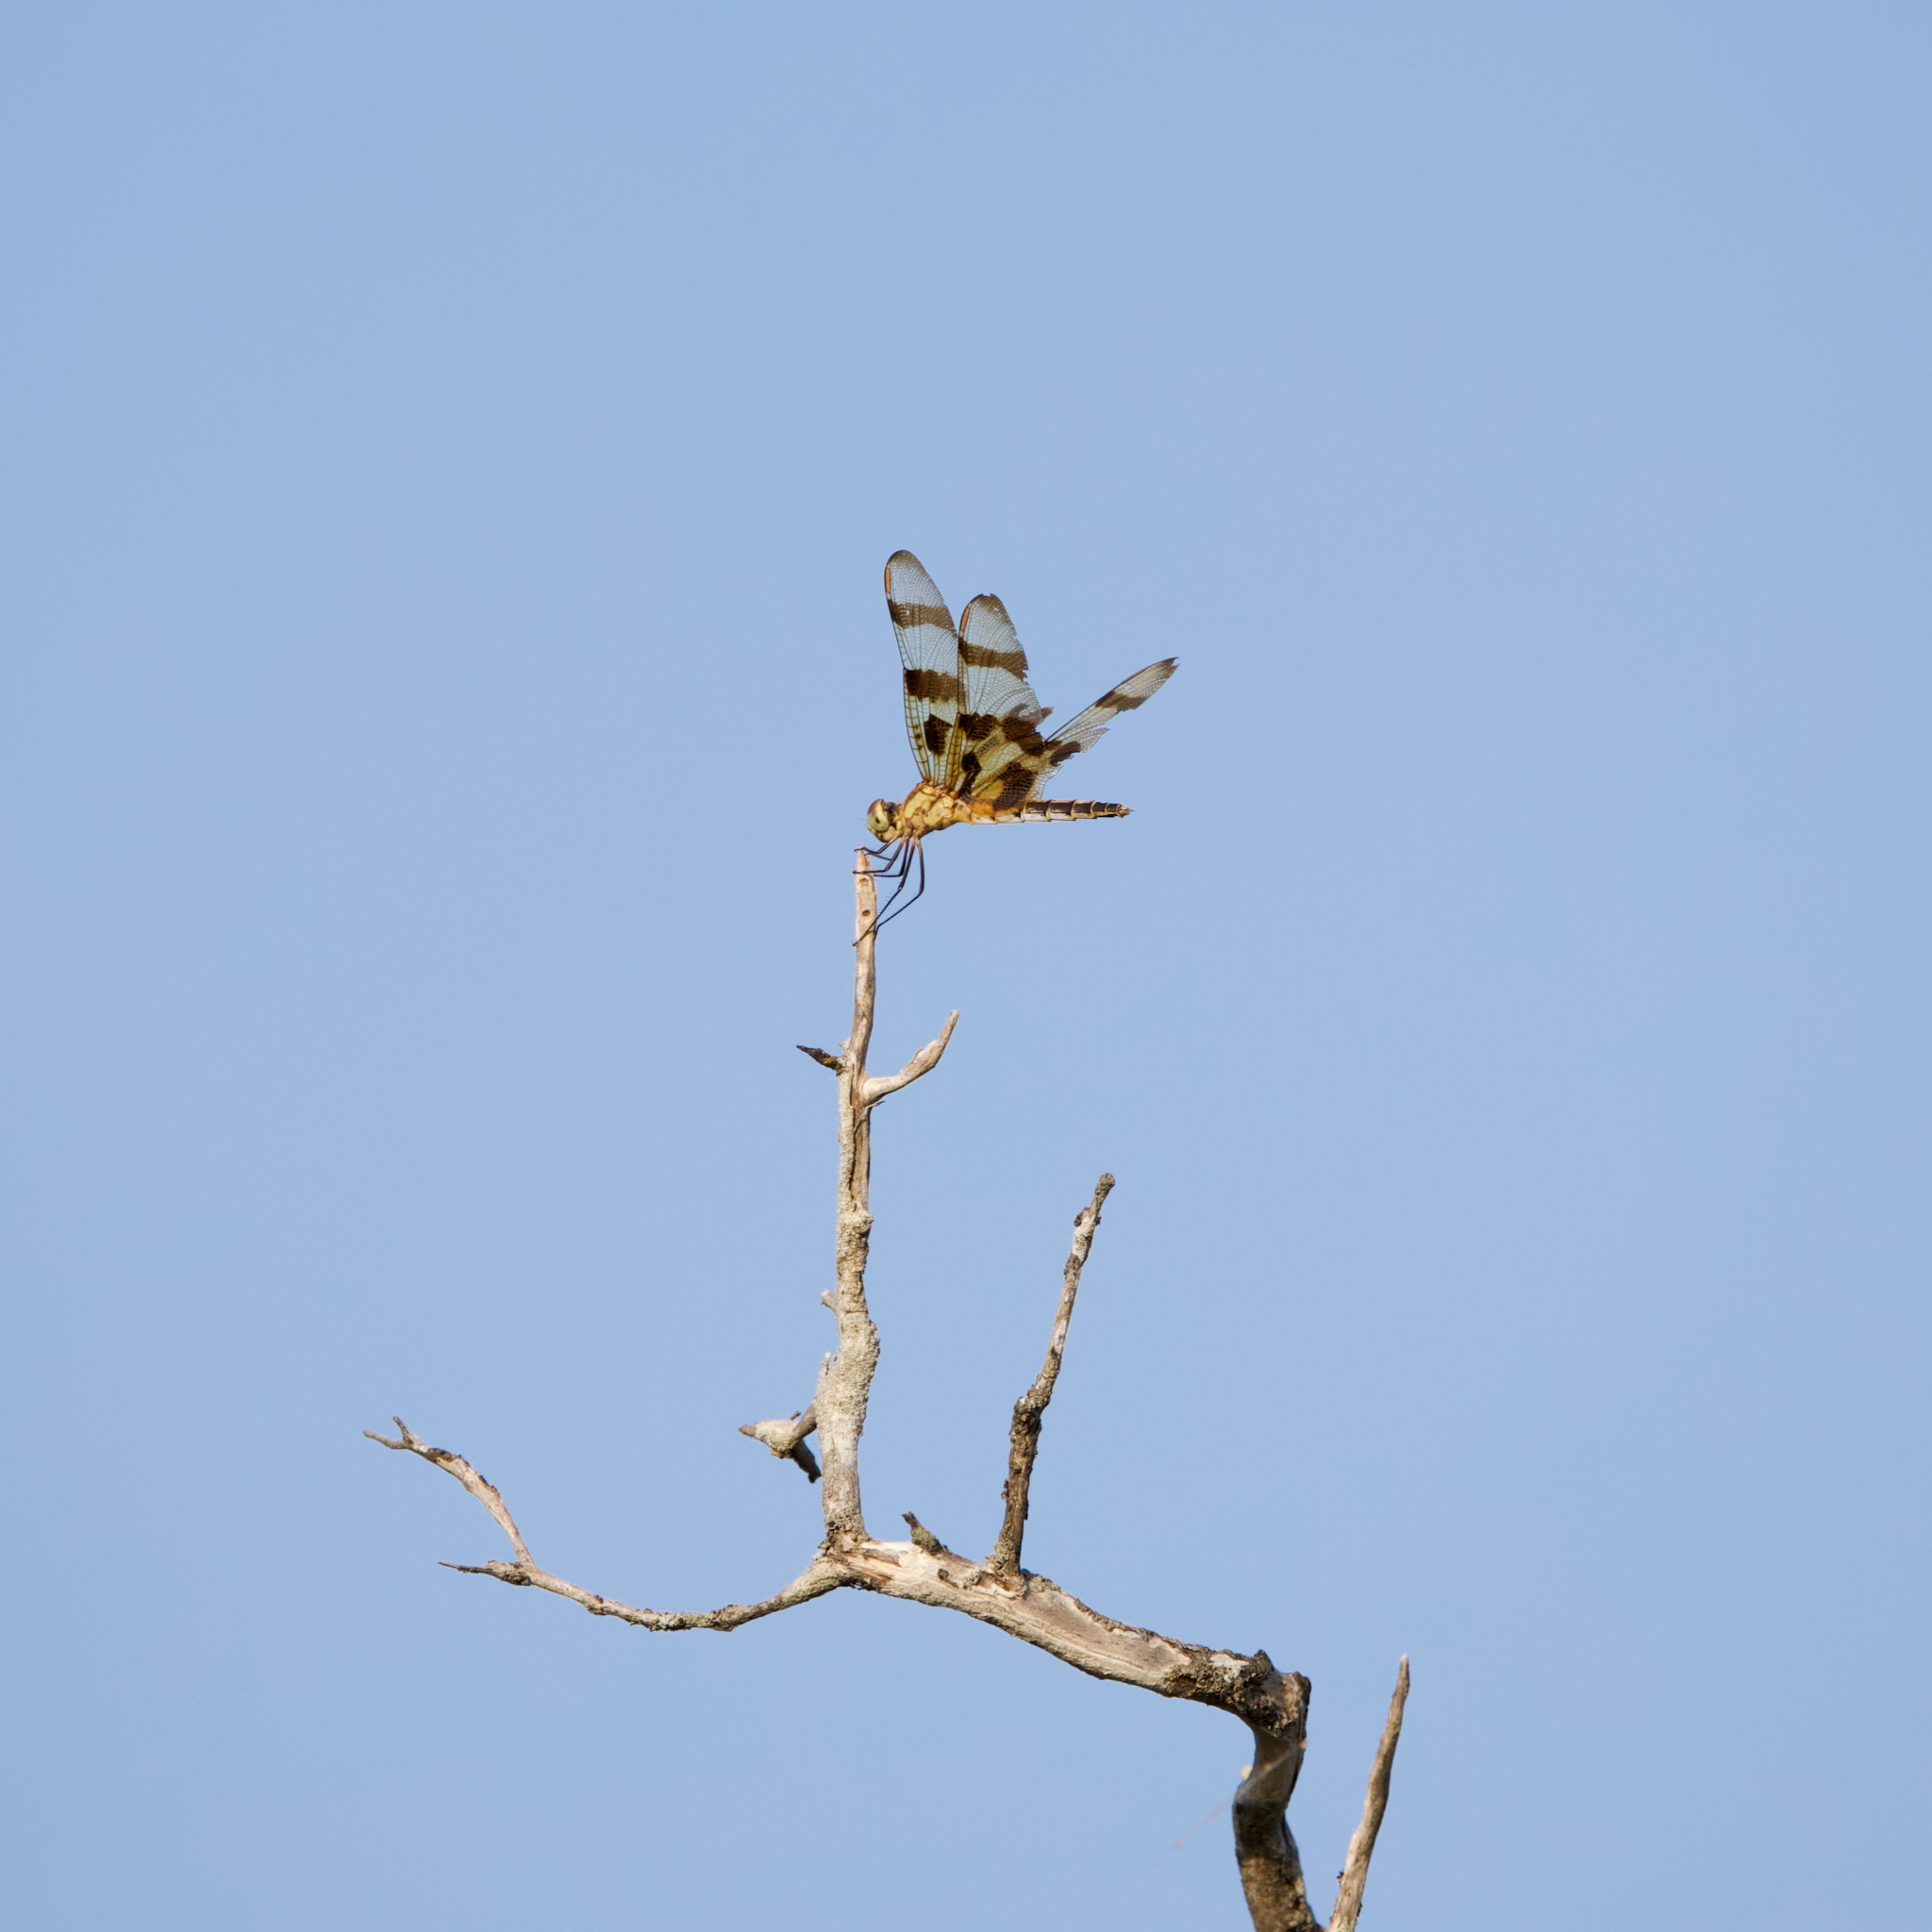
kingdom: Animalia
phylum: Arthropoda
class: Insecta
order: Odonata
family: Libellulidae
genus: Celithemis
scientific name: Celithemis eponina
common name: Halloween pennant
